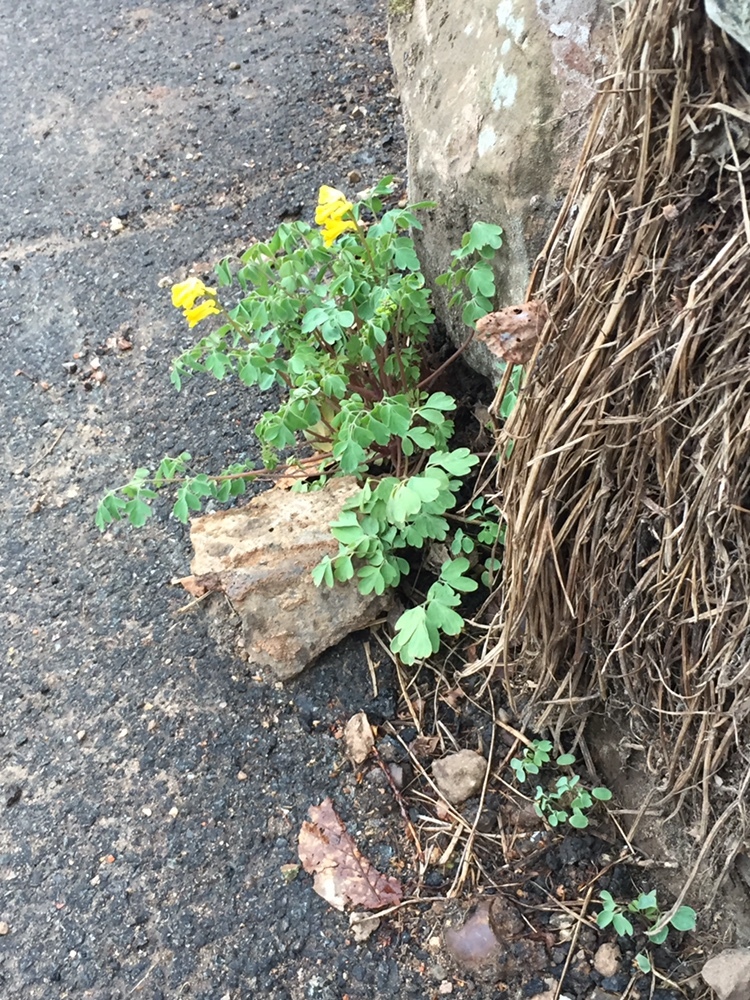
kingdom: Plantae
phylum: Tracheophyta
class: Magnoliopsida
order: Ranunculales
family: Papaveraceae
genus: Pseudofumaria
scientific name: Pseudofumaria lutea
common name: Yellow corydalis
